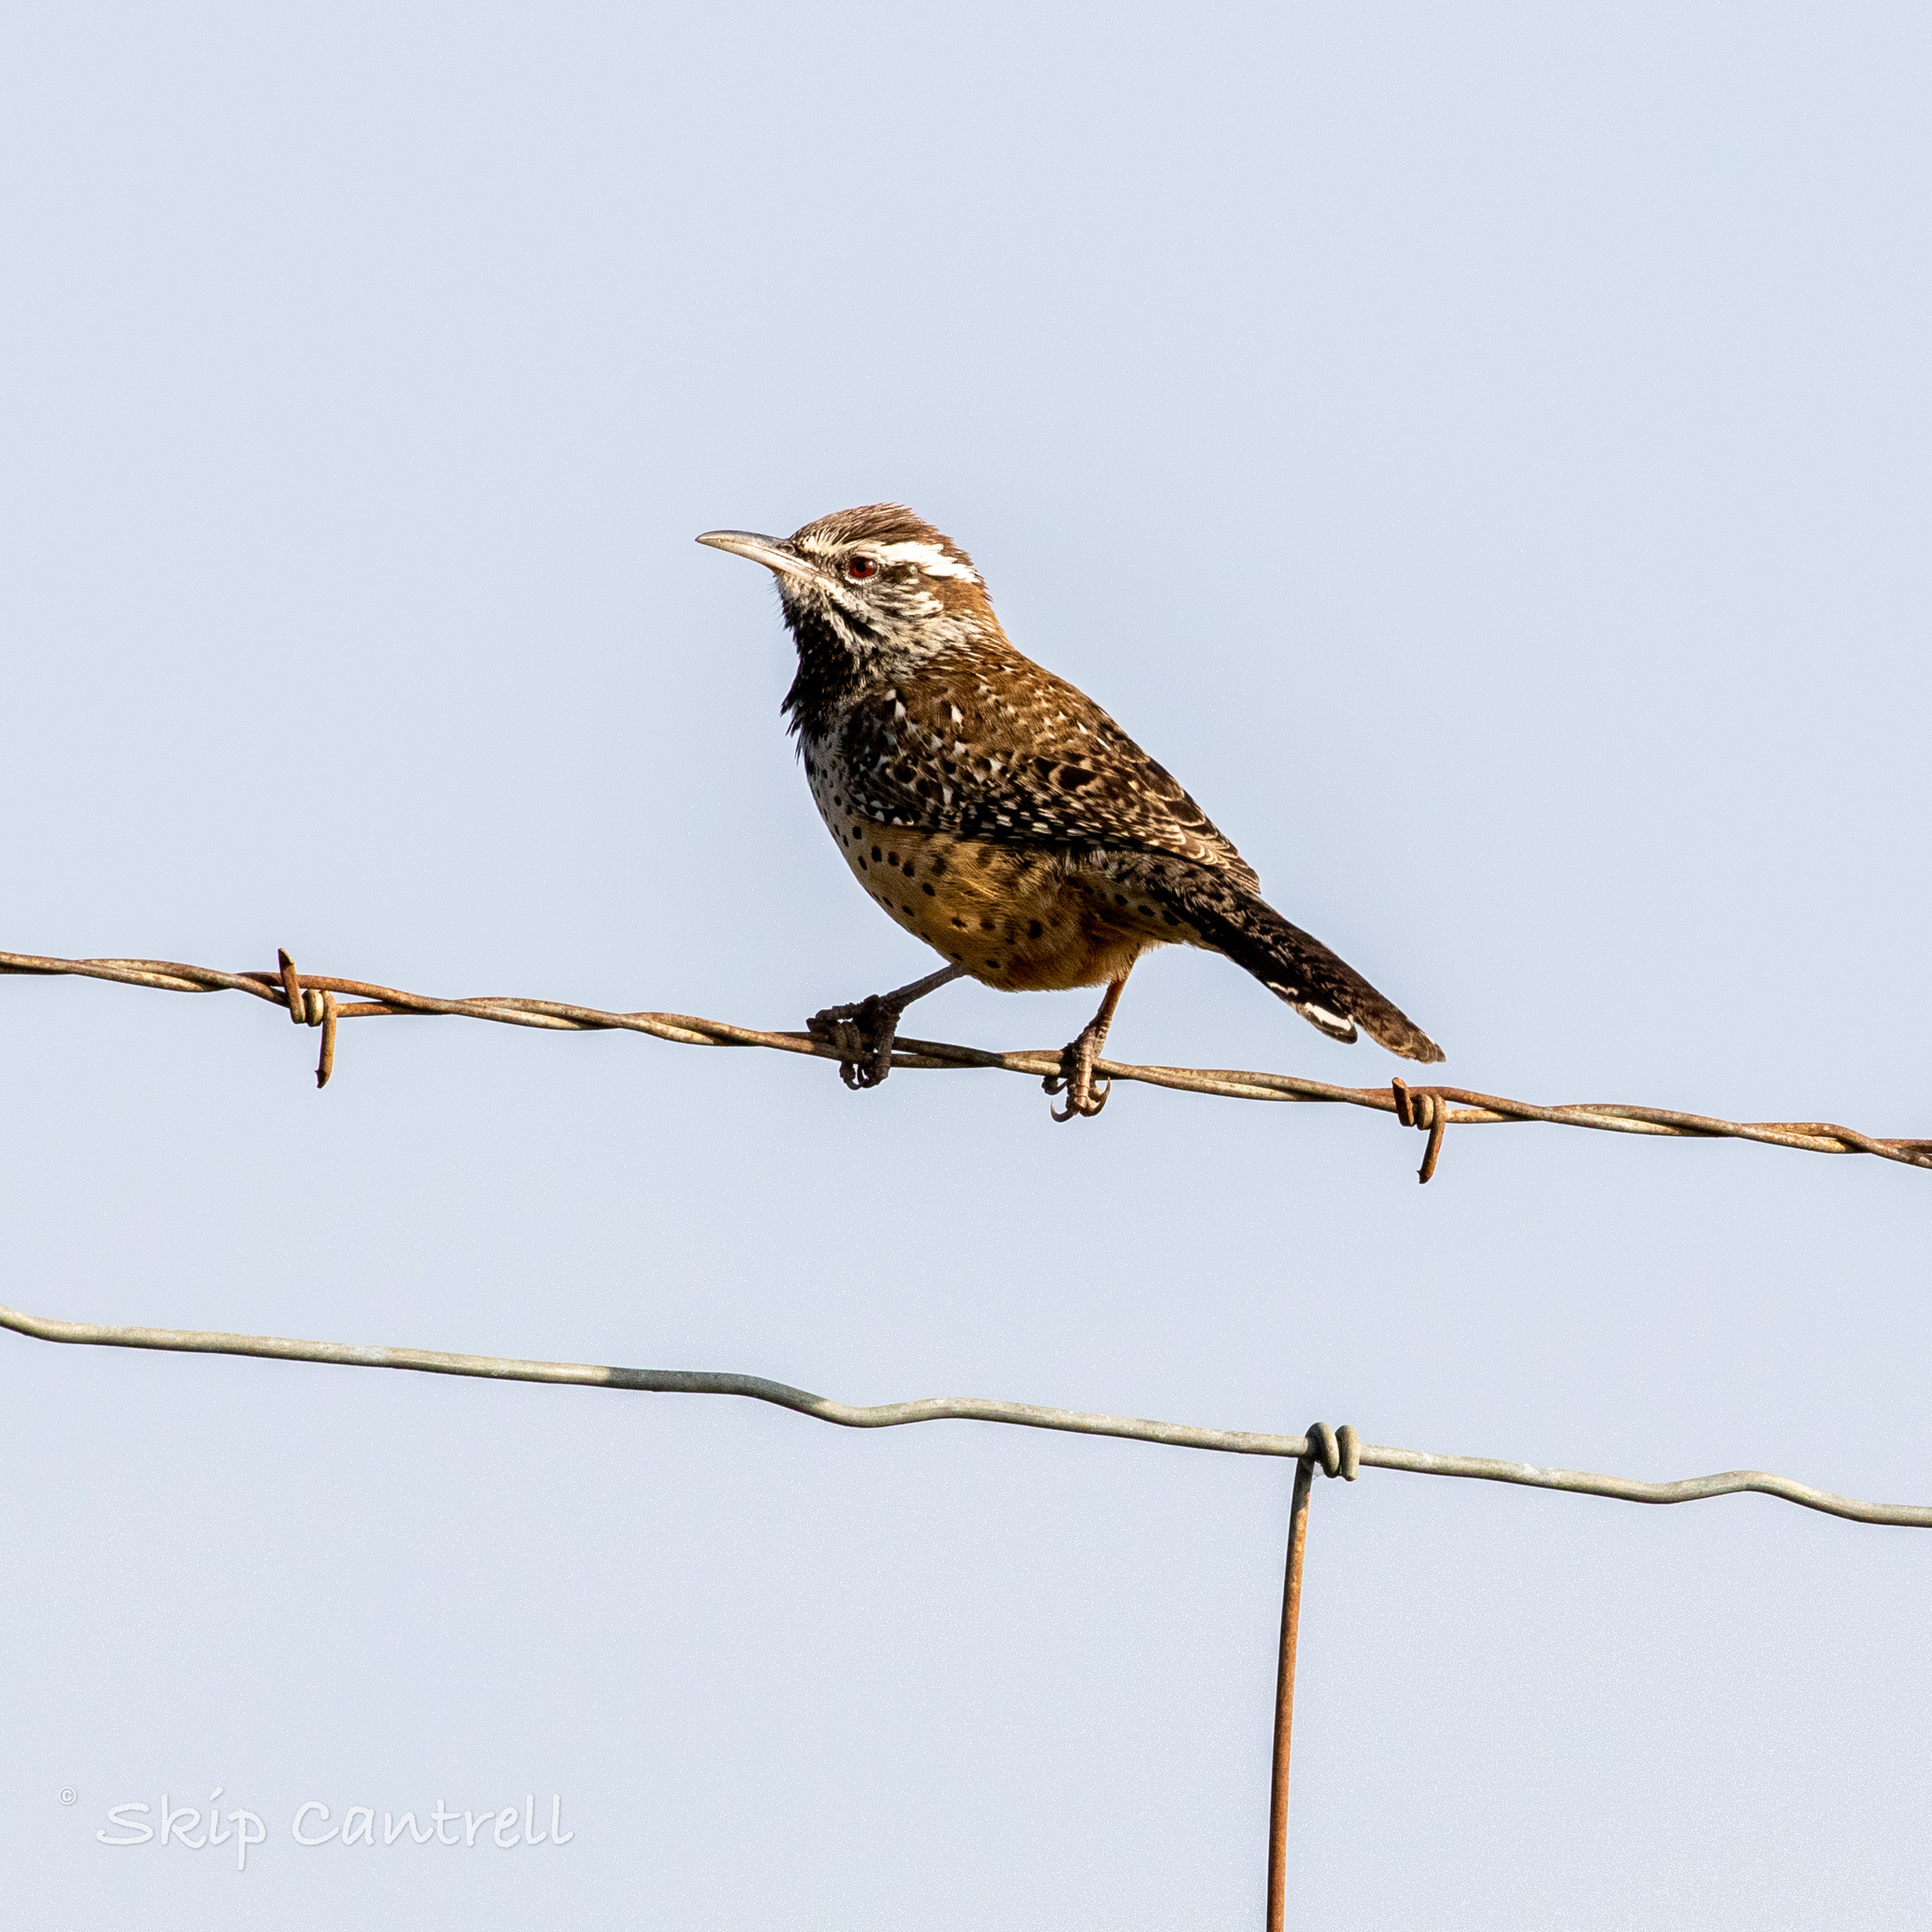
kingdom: Animalia
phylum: Chordata
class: Aves
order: Passeriformes
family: Troglodytidae
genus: Campylorhynchus
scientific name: Campylorhynchus brunneicapillus
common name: Cactus wren
